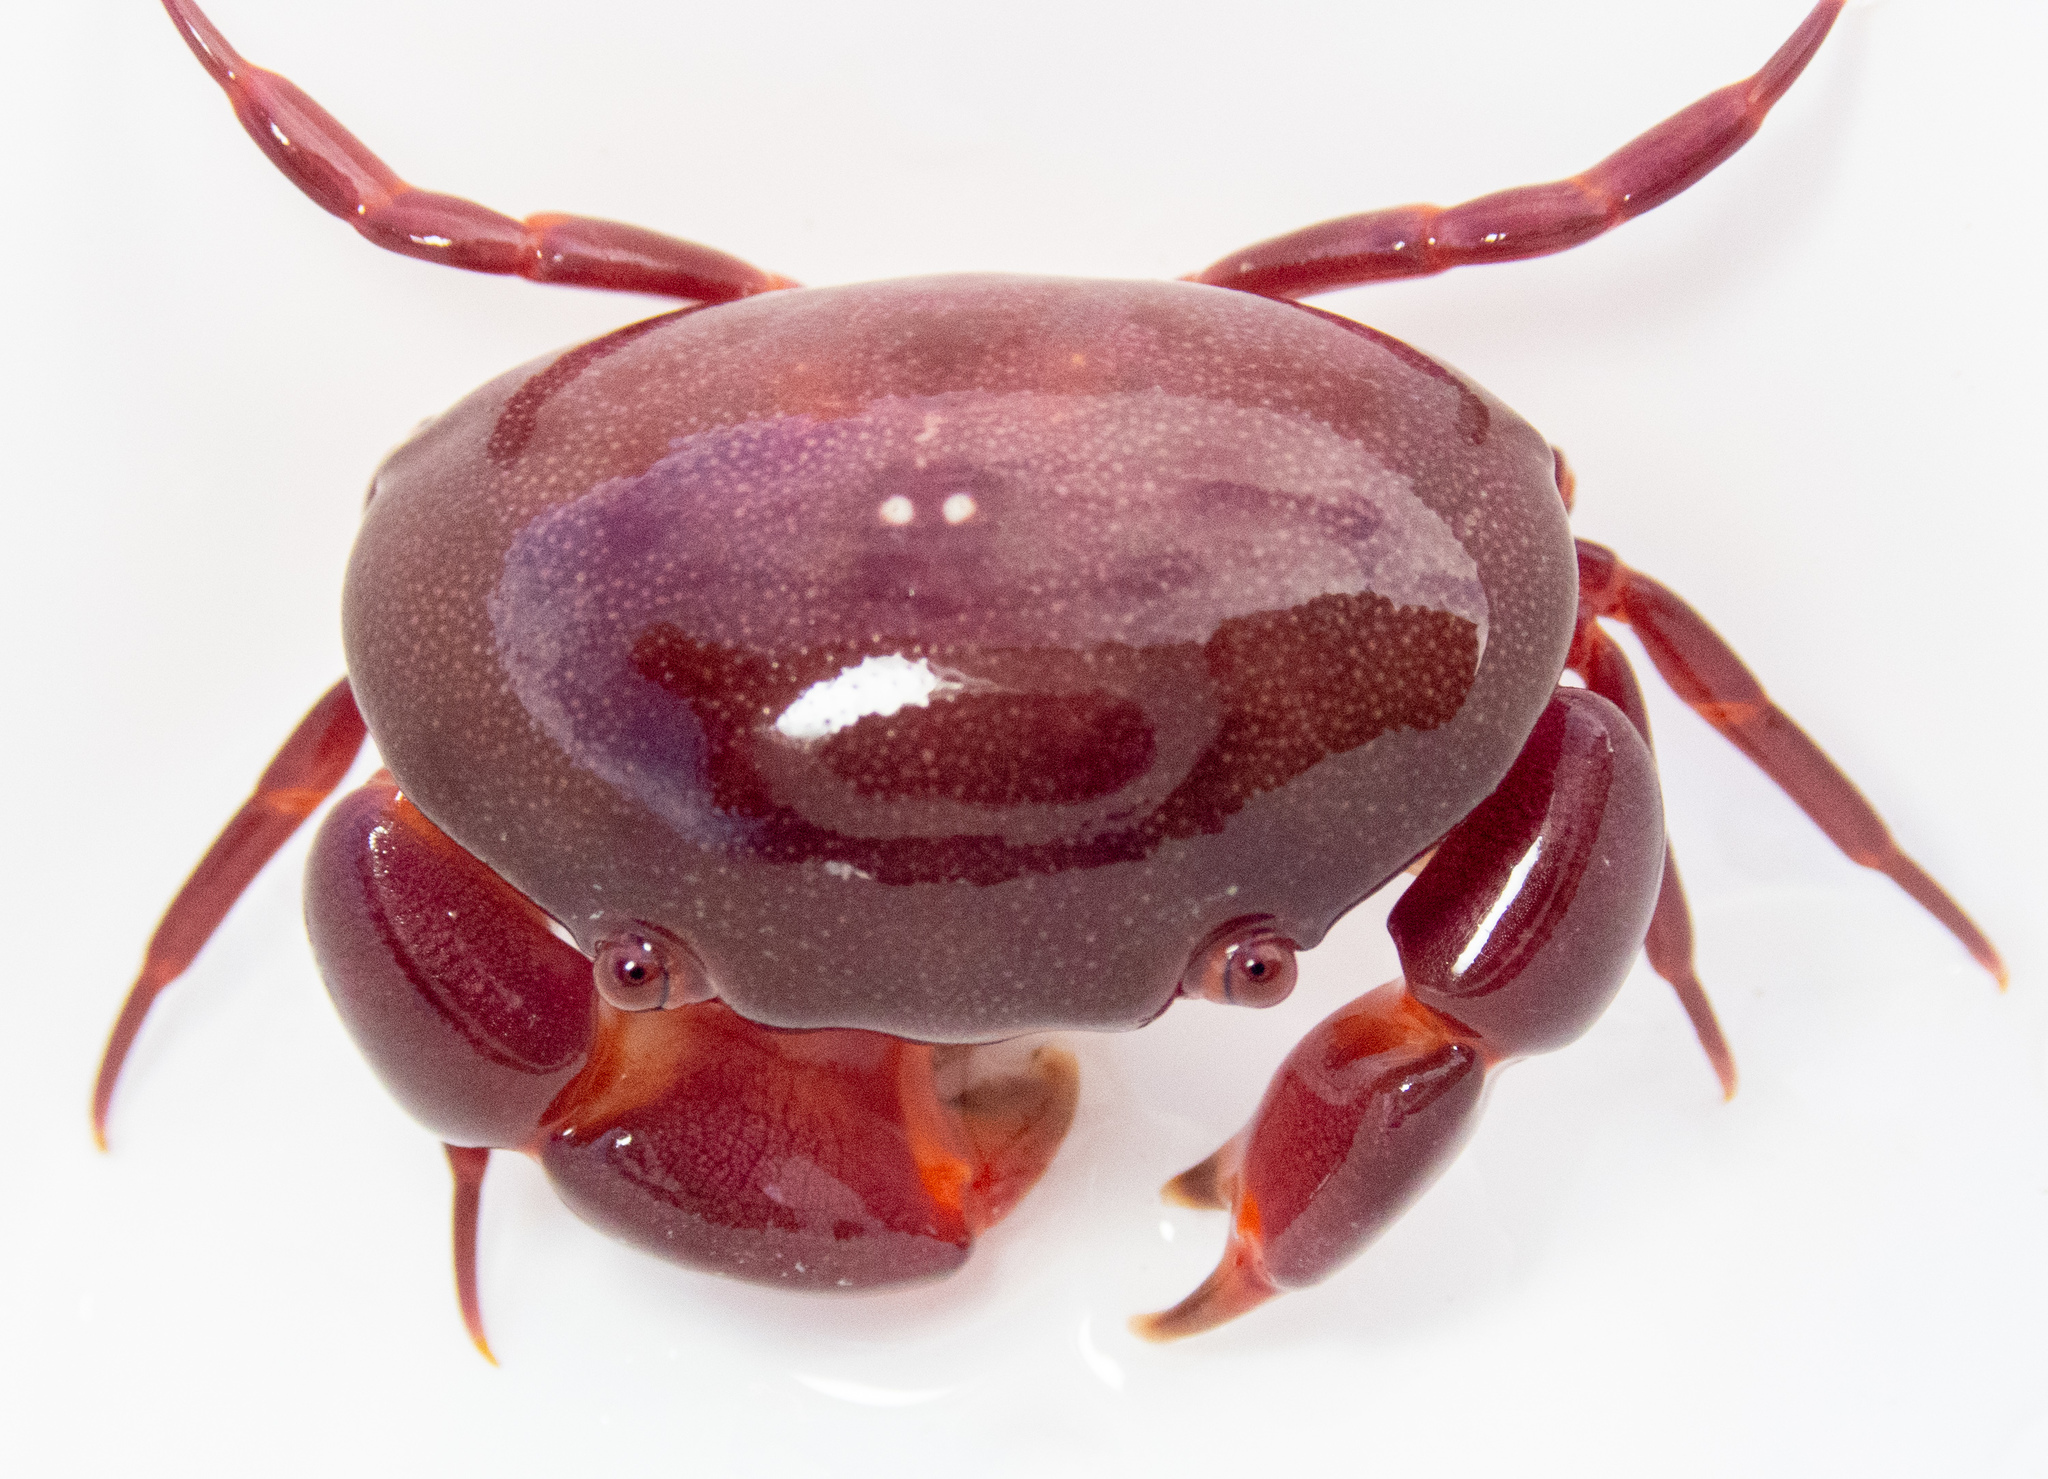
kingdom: Animalia
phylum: Arthropoda
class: Malacostraca
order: Decapoda
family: Carpiliidae
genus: Carpilius
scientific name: Carpilius convexus
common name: Convex reef crab
